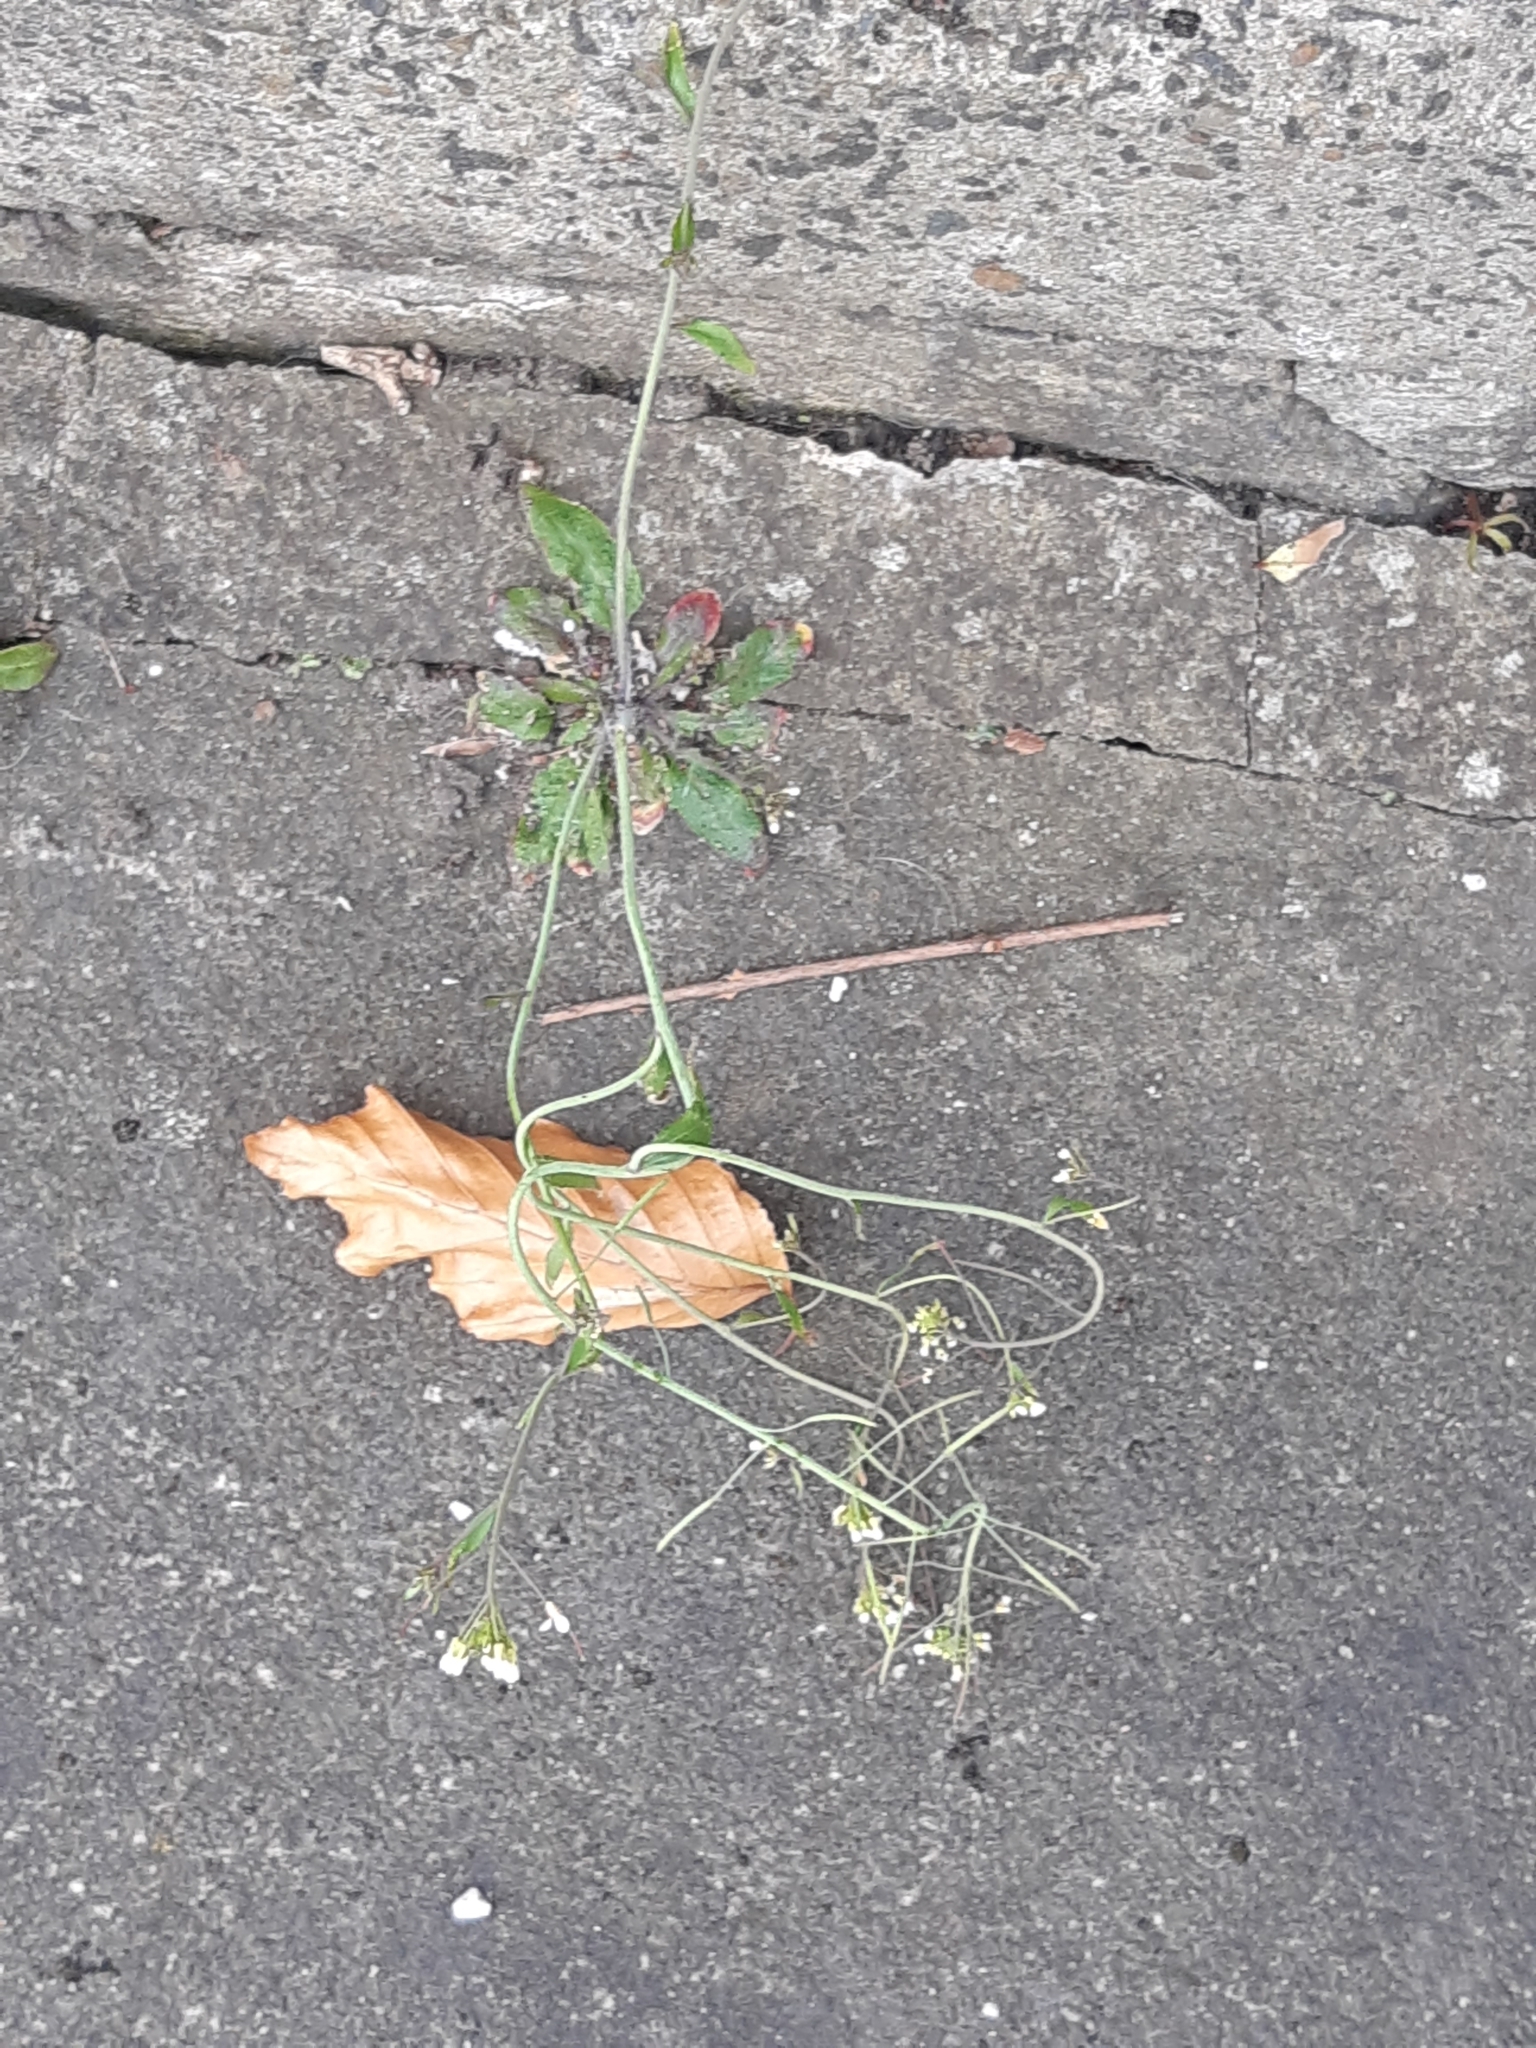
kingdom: Plantae
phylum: Tracheophyta
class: Magnoliopsida
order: Brassicales
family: Brassicaceae
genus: Arabidopsis
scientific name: Arabidopsis thaliana
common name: Thale cress
